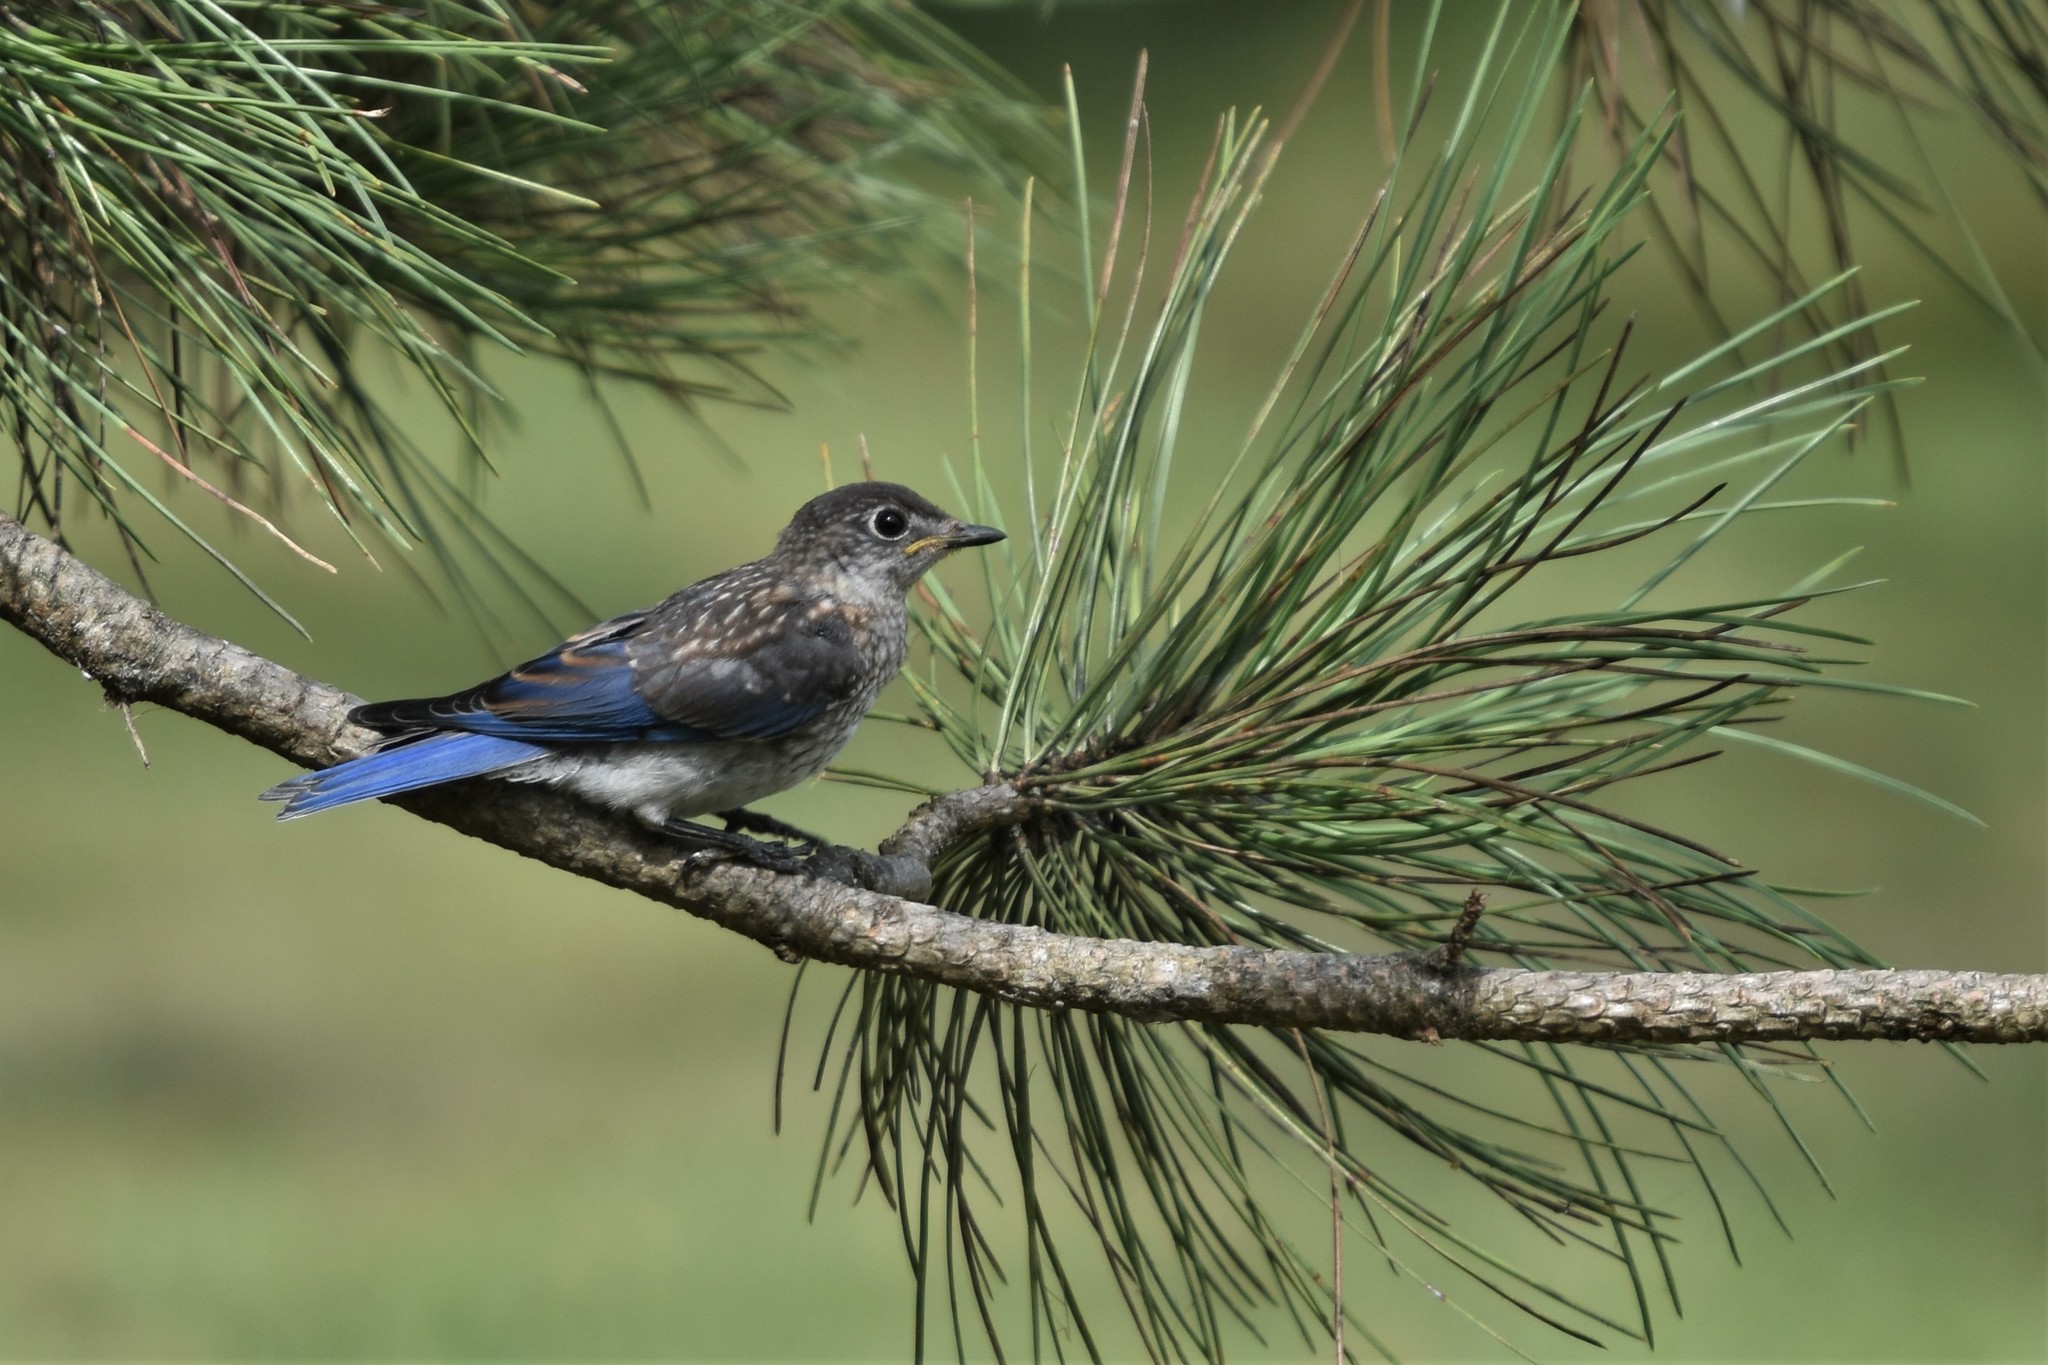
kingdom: Animalia
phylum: Chordata
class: Aves
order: Passeriformes
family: Turdidae
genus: Sialia
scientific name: Sialia sialis
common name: Eastern bluebird
